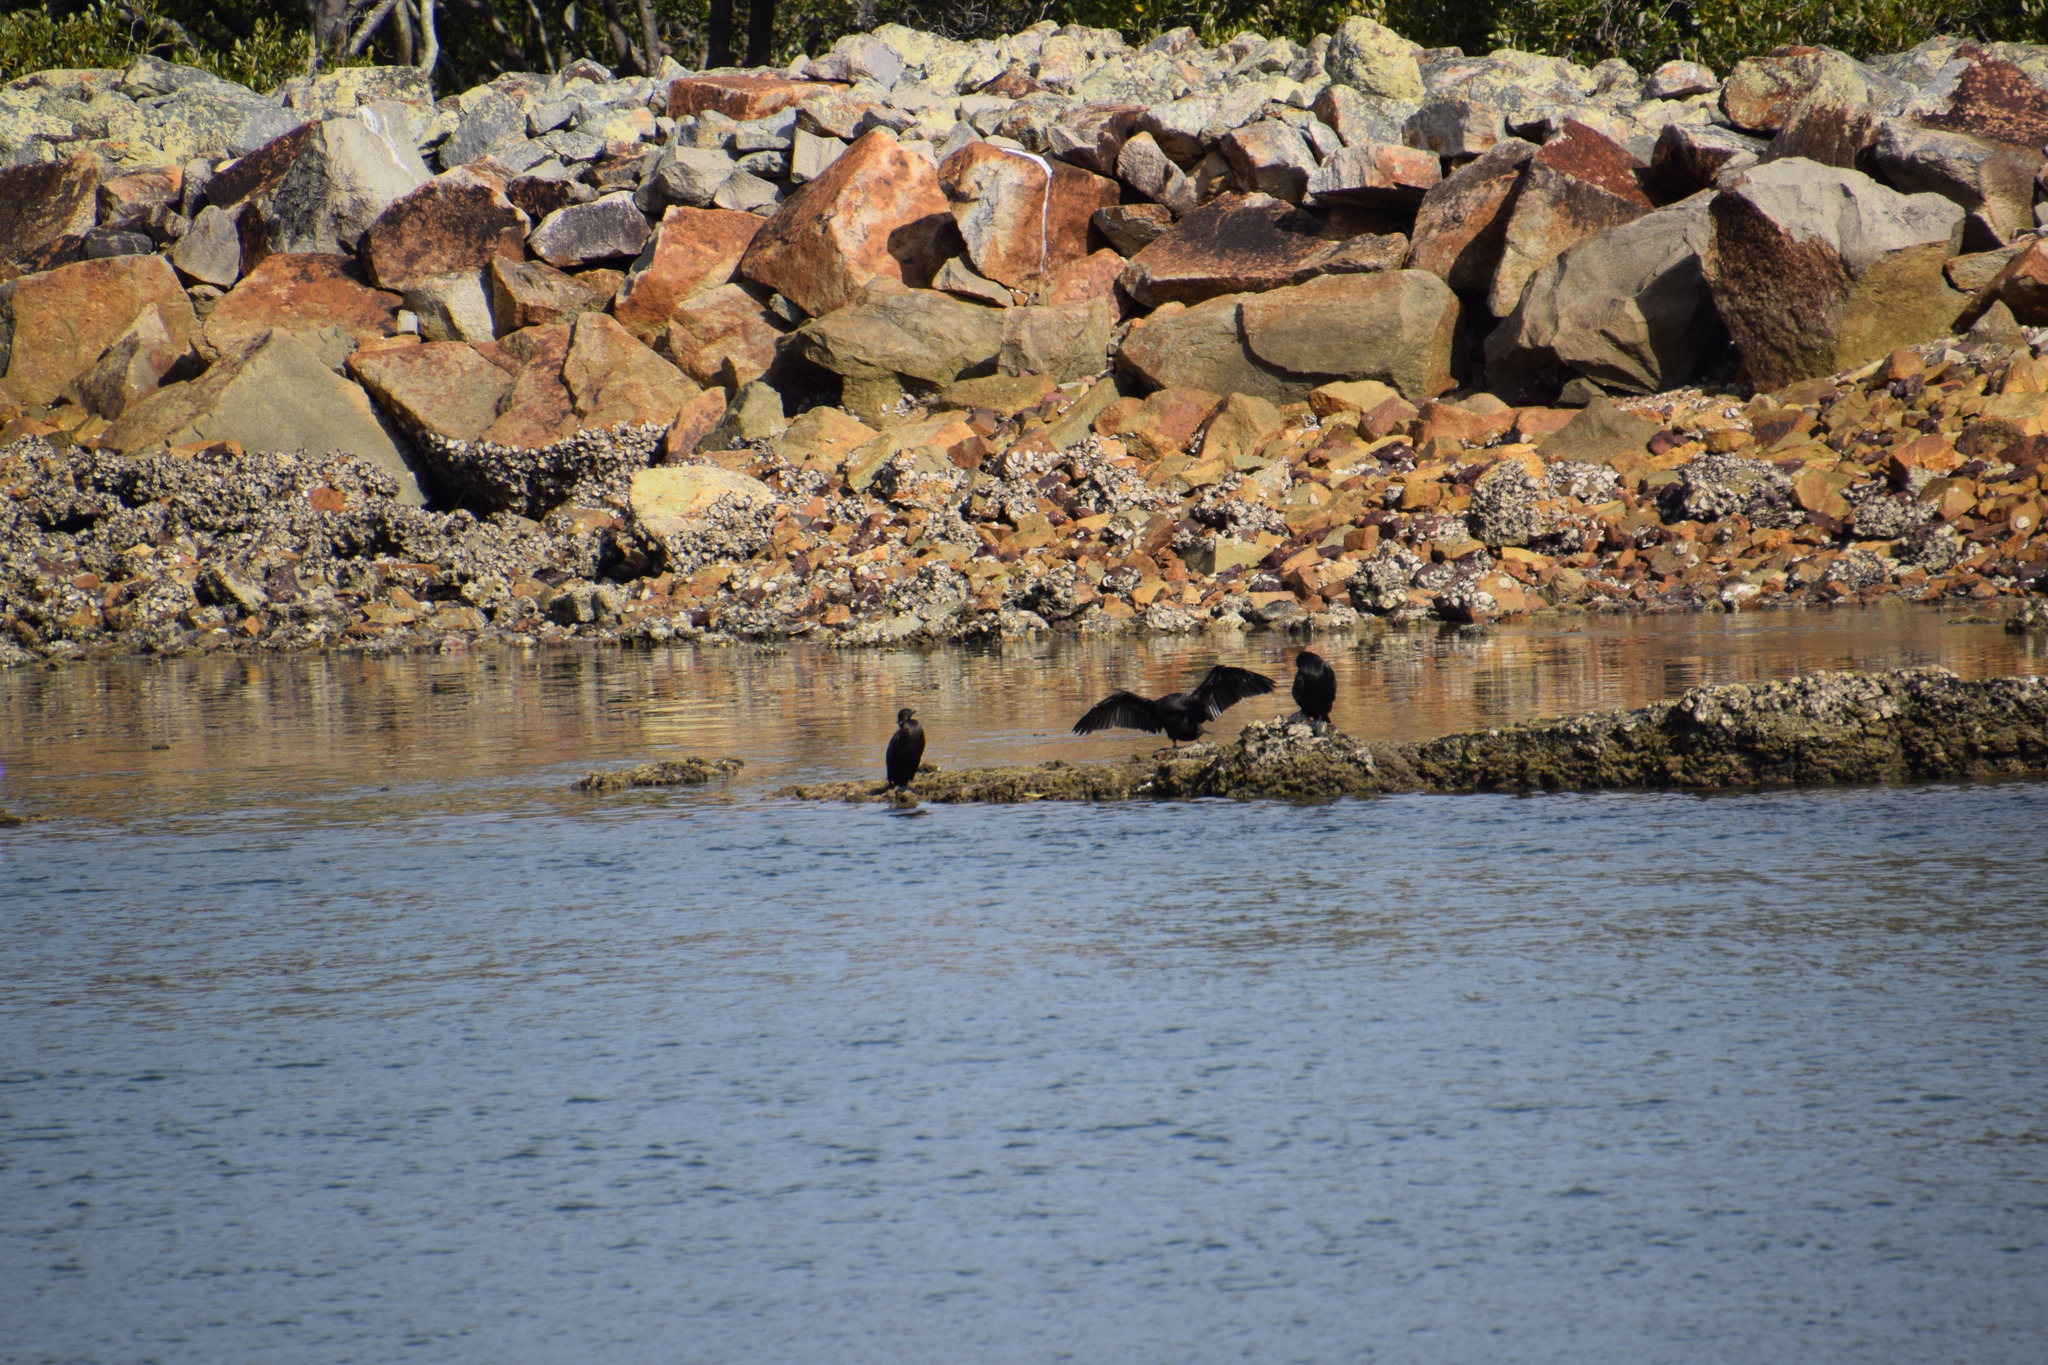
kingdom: Animalia
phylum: Chordata
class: Aves
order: Suliformes
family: Phalacrocoracidae
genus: Phalacrocorax
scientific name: Phalacrocorax sulcirostris
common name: Little black cormorant
